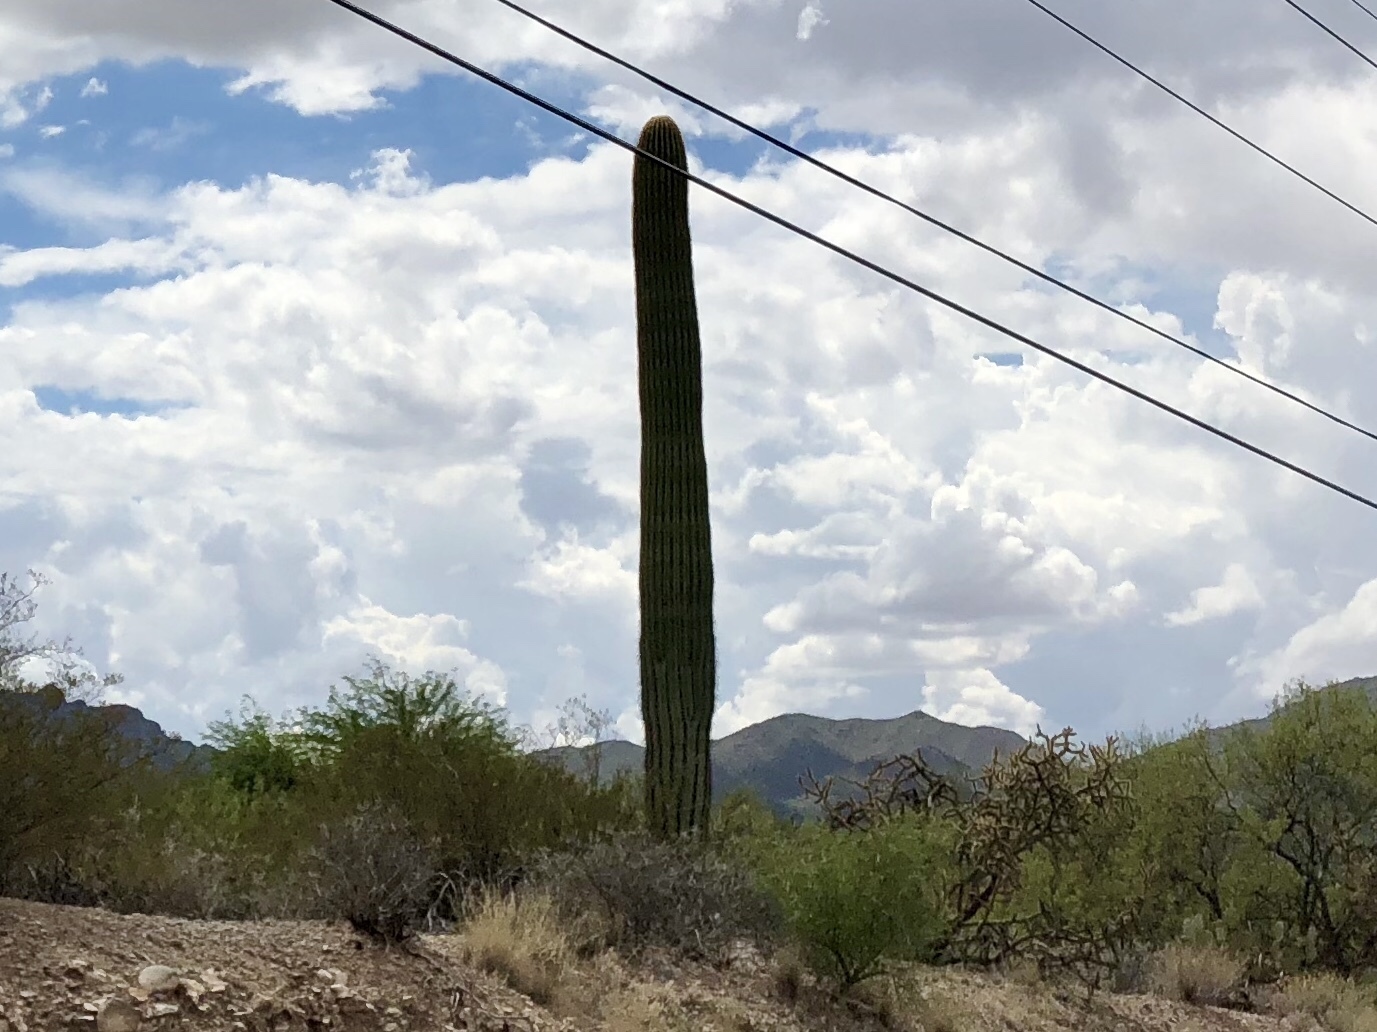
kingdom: Plantae
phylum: Tracheophyta
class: Magnoliopsida
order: Caryophyllales
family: Cactaceae
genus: Carnegiea
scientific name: Carnegiea gigantea
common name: Saguaro
